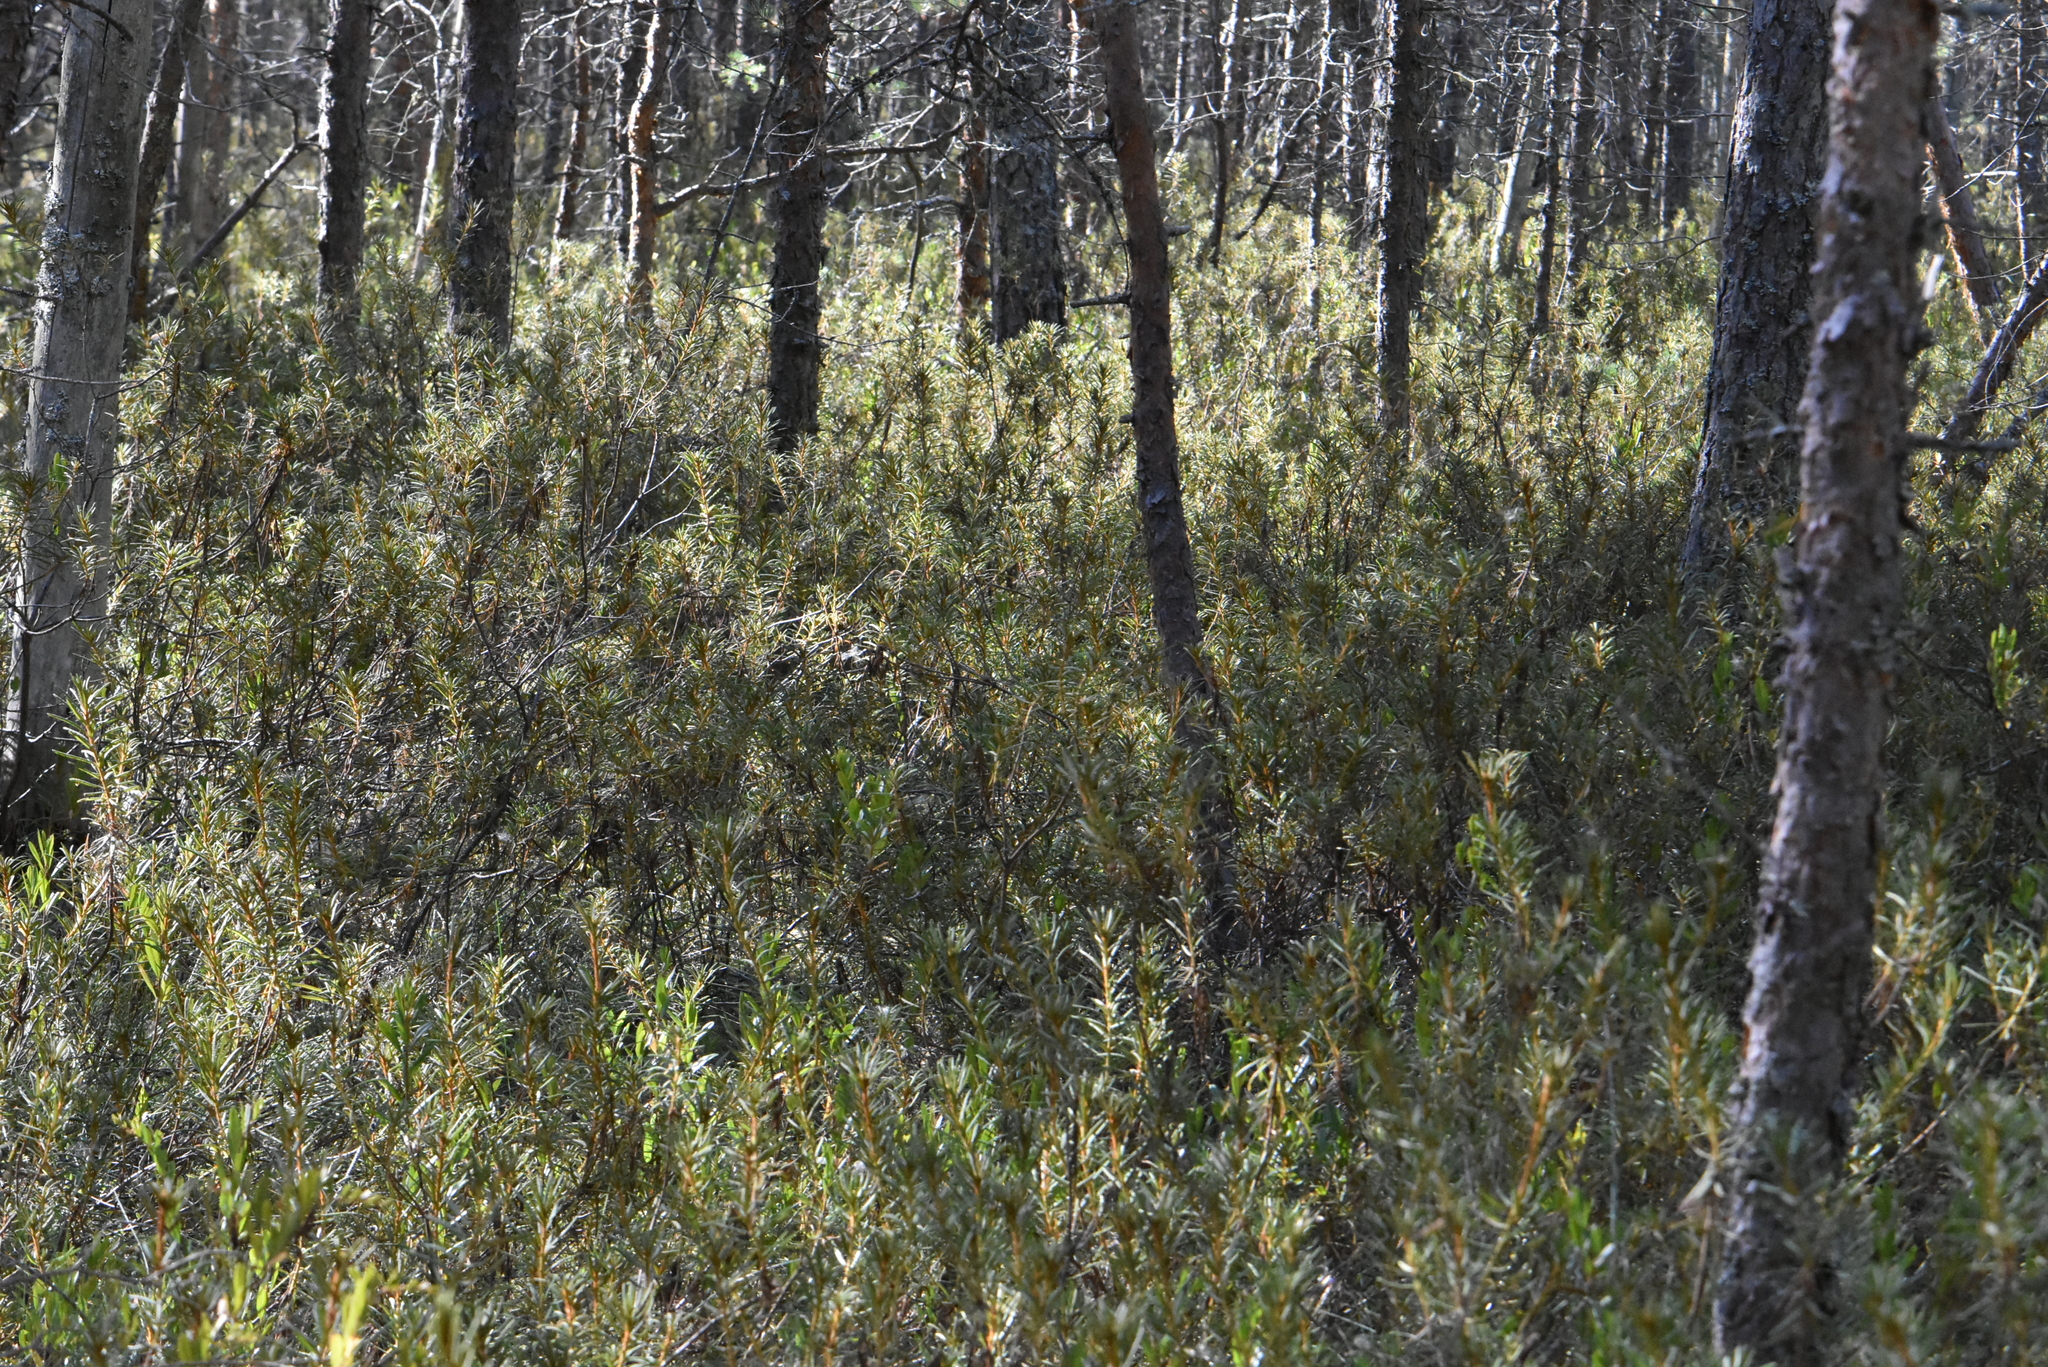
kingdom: Plantae
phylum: Tracheophyta
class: Magnoliopsida
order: Ericales
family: Ericaceae
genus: Rhododendron
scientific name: Rhododendron tomentosum
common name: Marsh labrador tea
